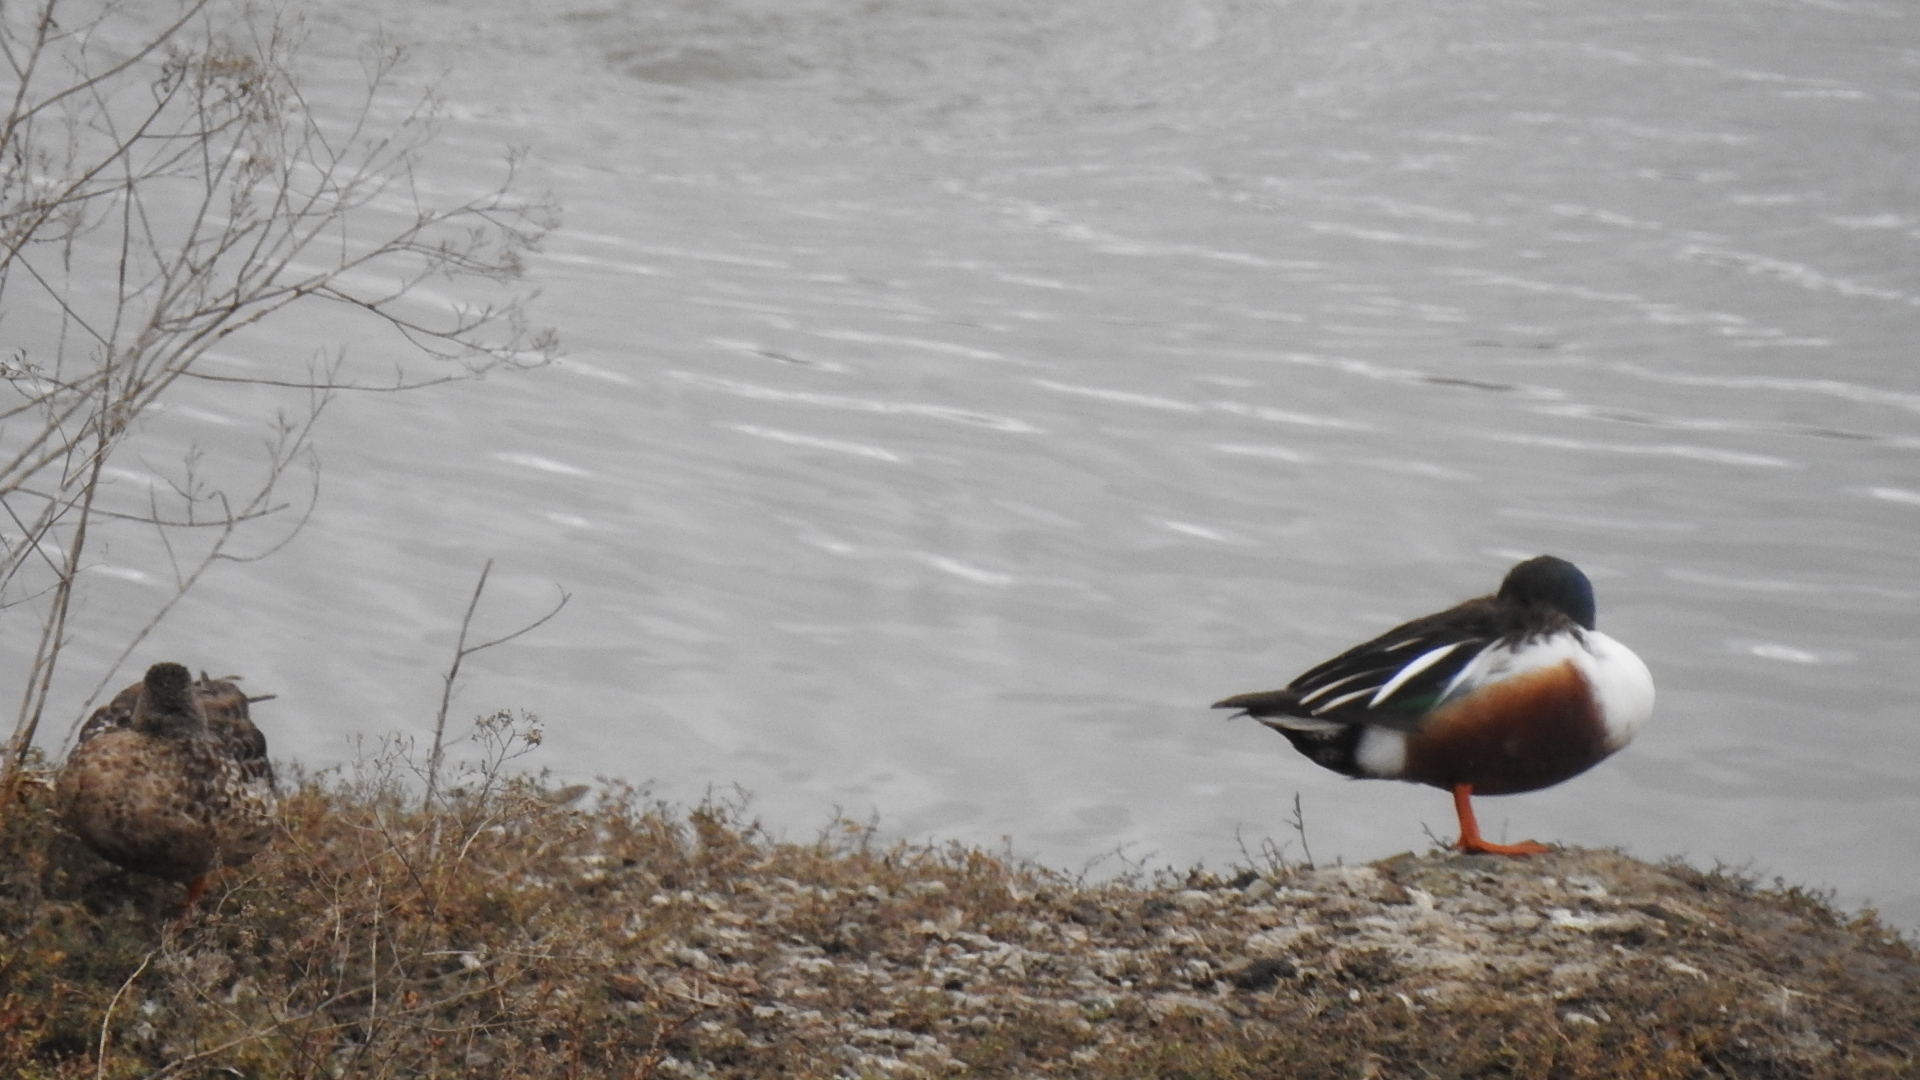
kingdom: Animalia
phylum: Chordata
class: Aves
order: Anseriformes
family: Anatidae
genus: Spatula
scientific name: Spatula clypeata
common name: Northern shoveler
